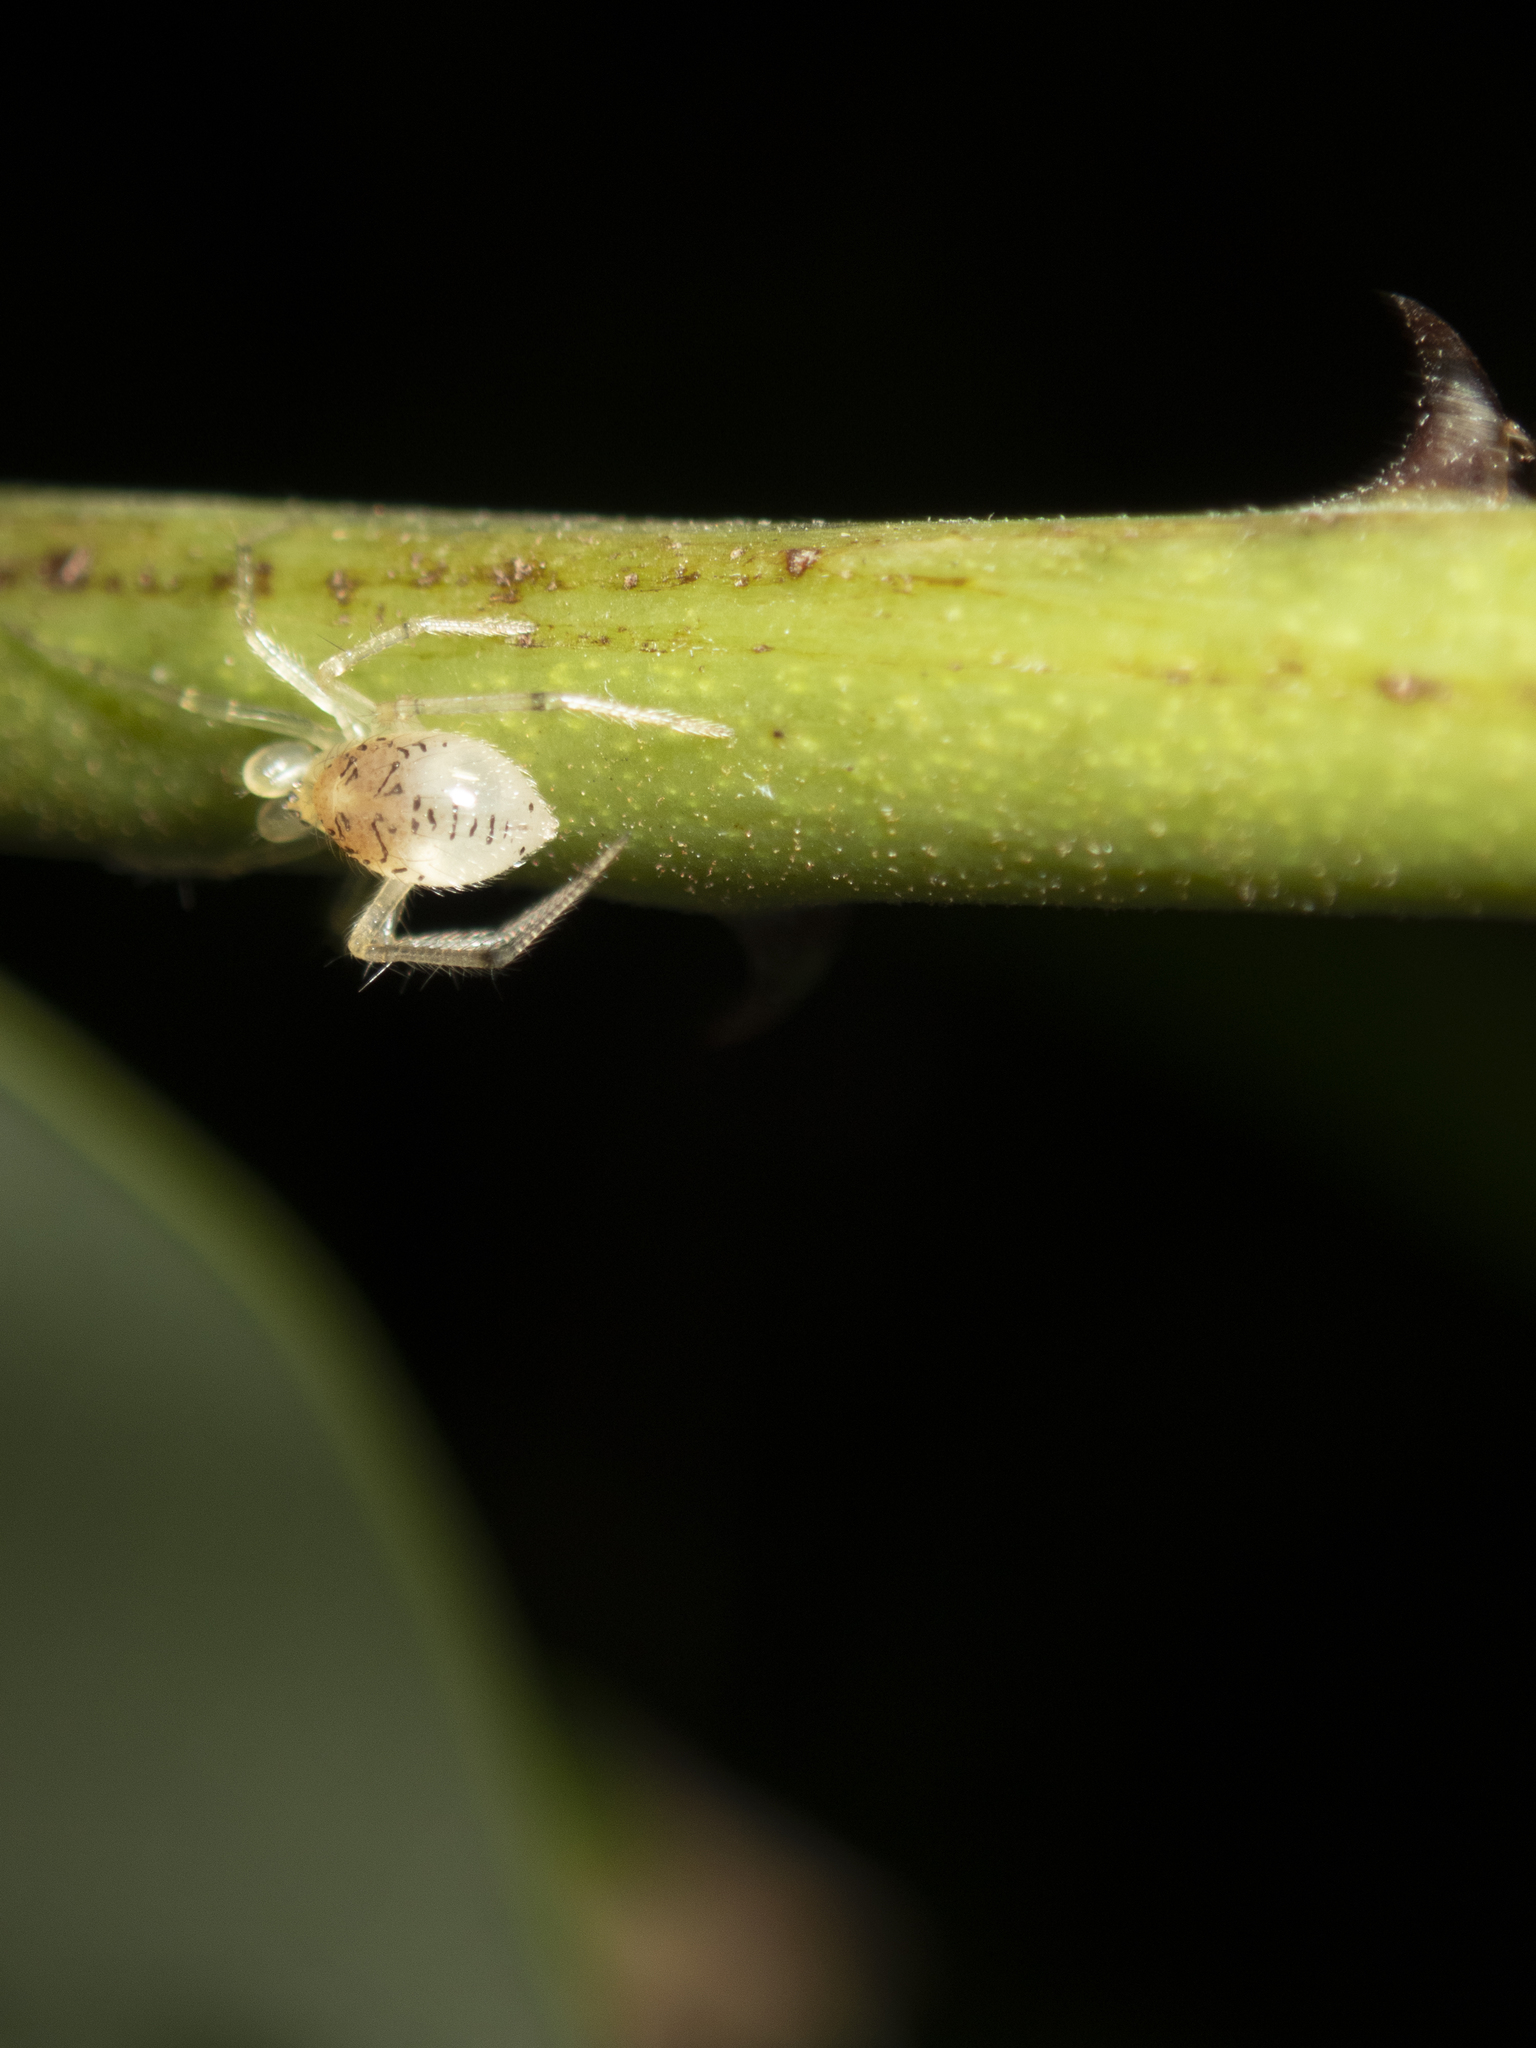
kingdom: Animalia
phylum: Arthropoda
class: Arachnida
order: Araneae
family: Theridiidae
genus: Phycosoma
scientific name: Phycosoma digitula
